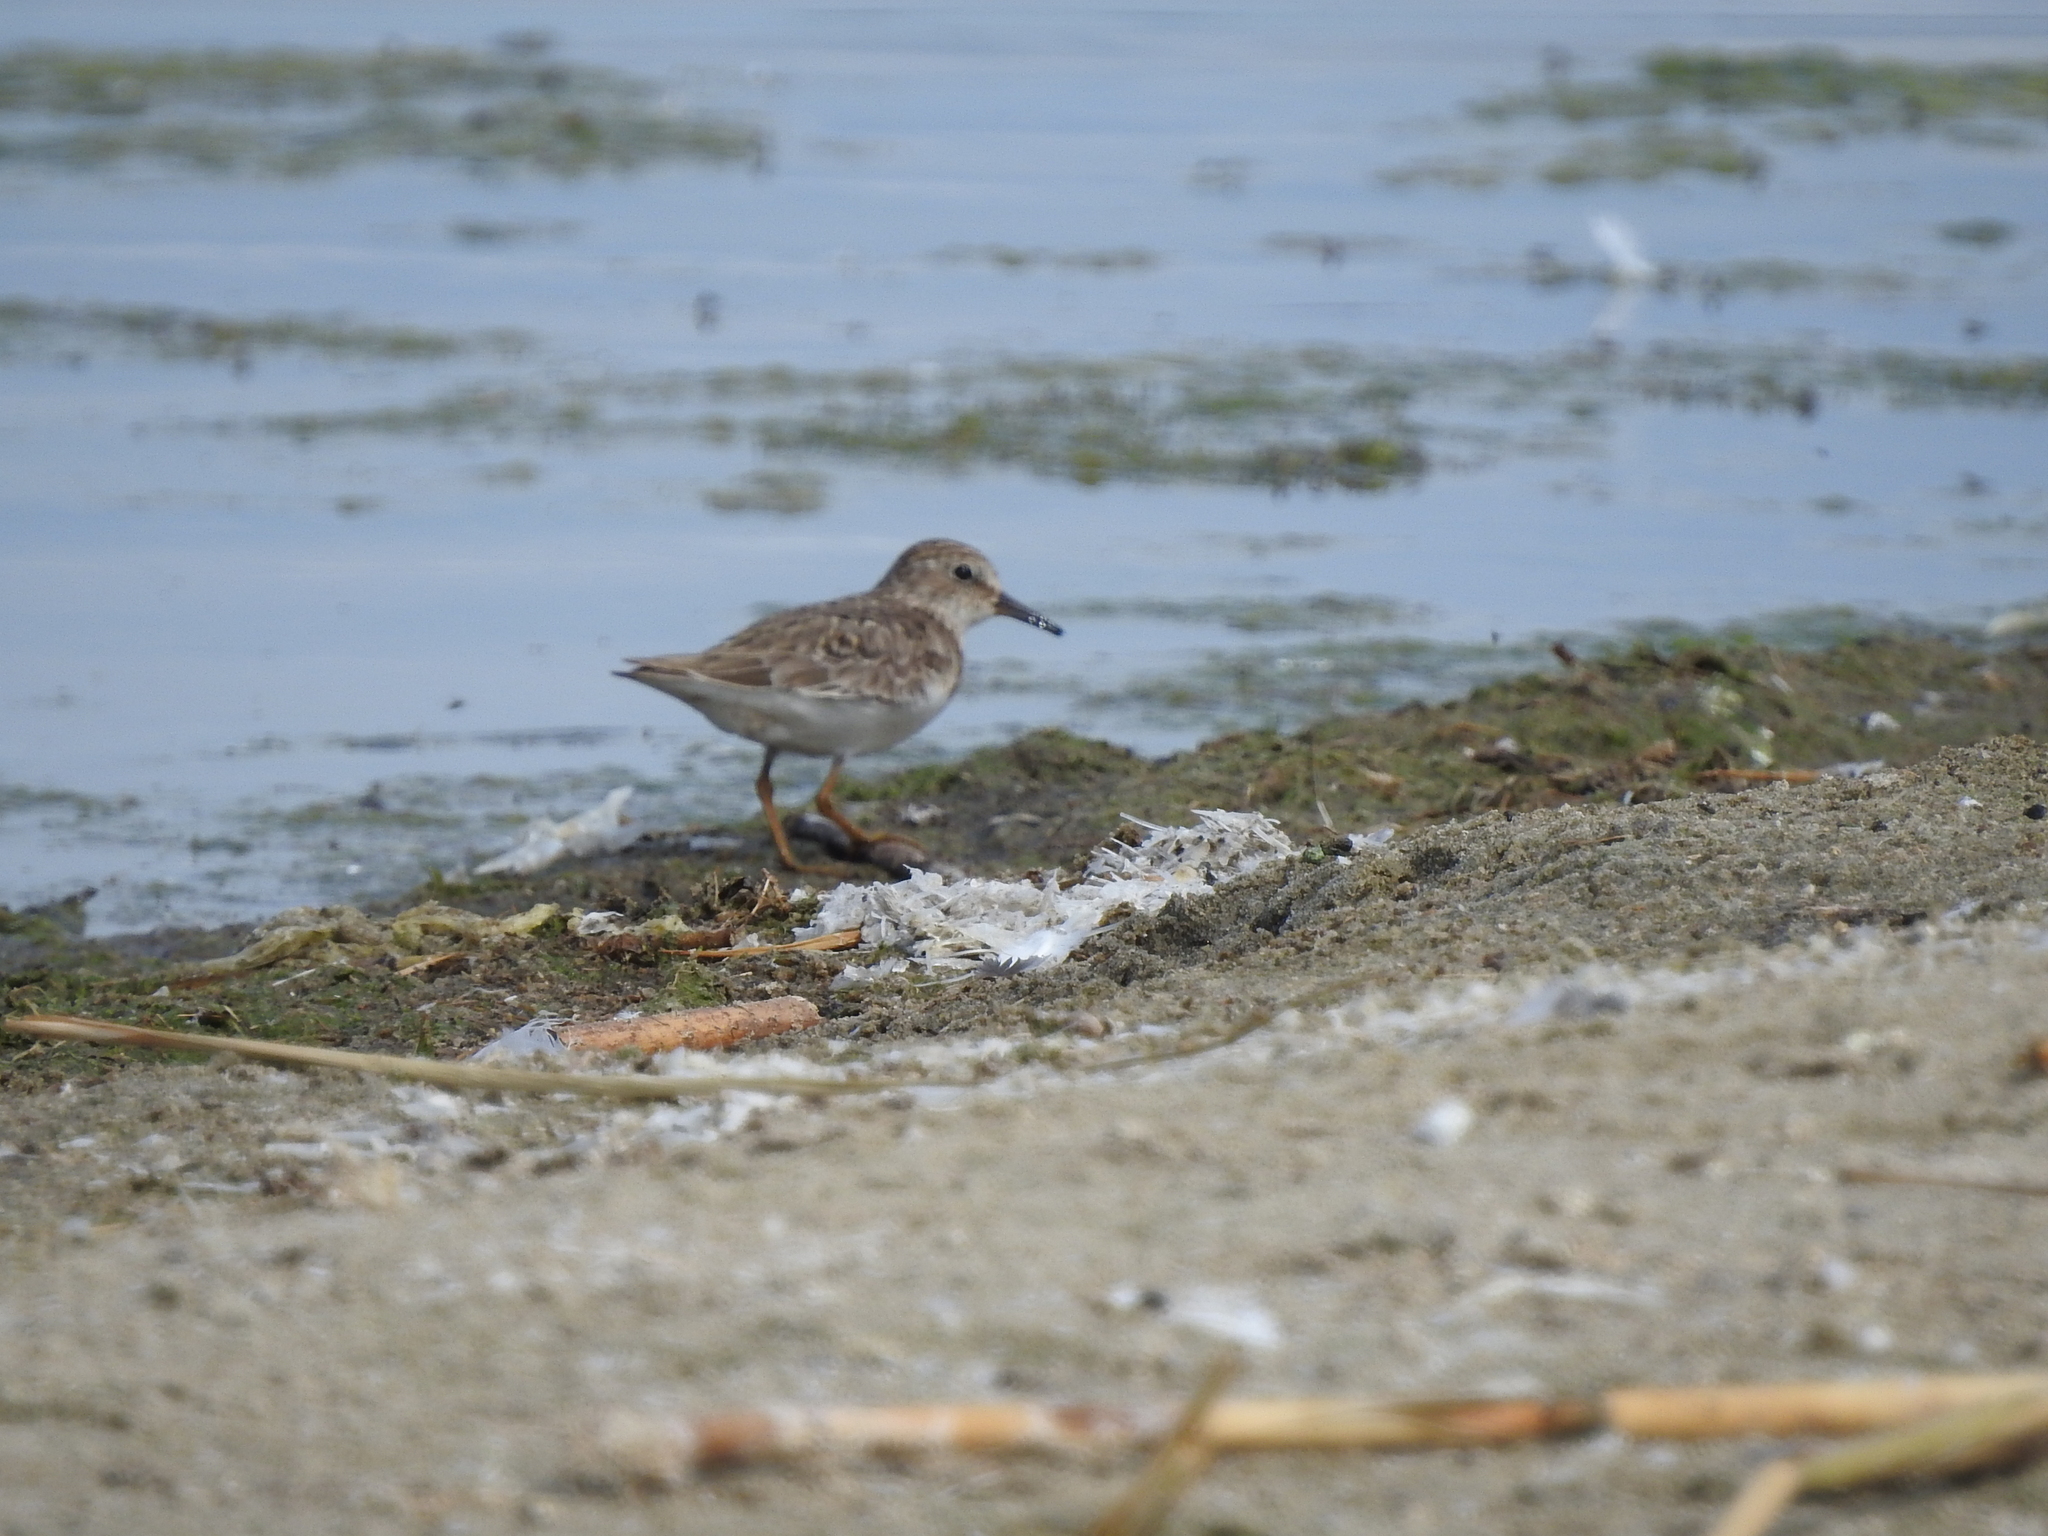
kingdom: Animalia
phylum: Chordata
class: Aves
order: Charadriiformes
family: Scolopacidae
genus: Calidris
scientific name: Calidris temminckii
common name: Temminck's stint
